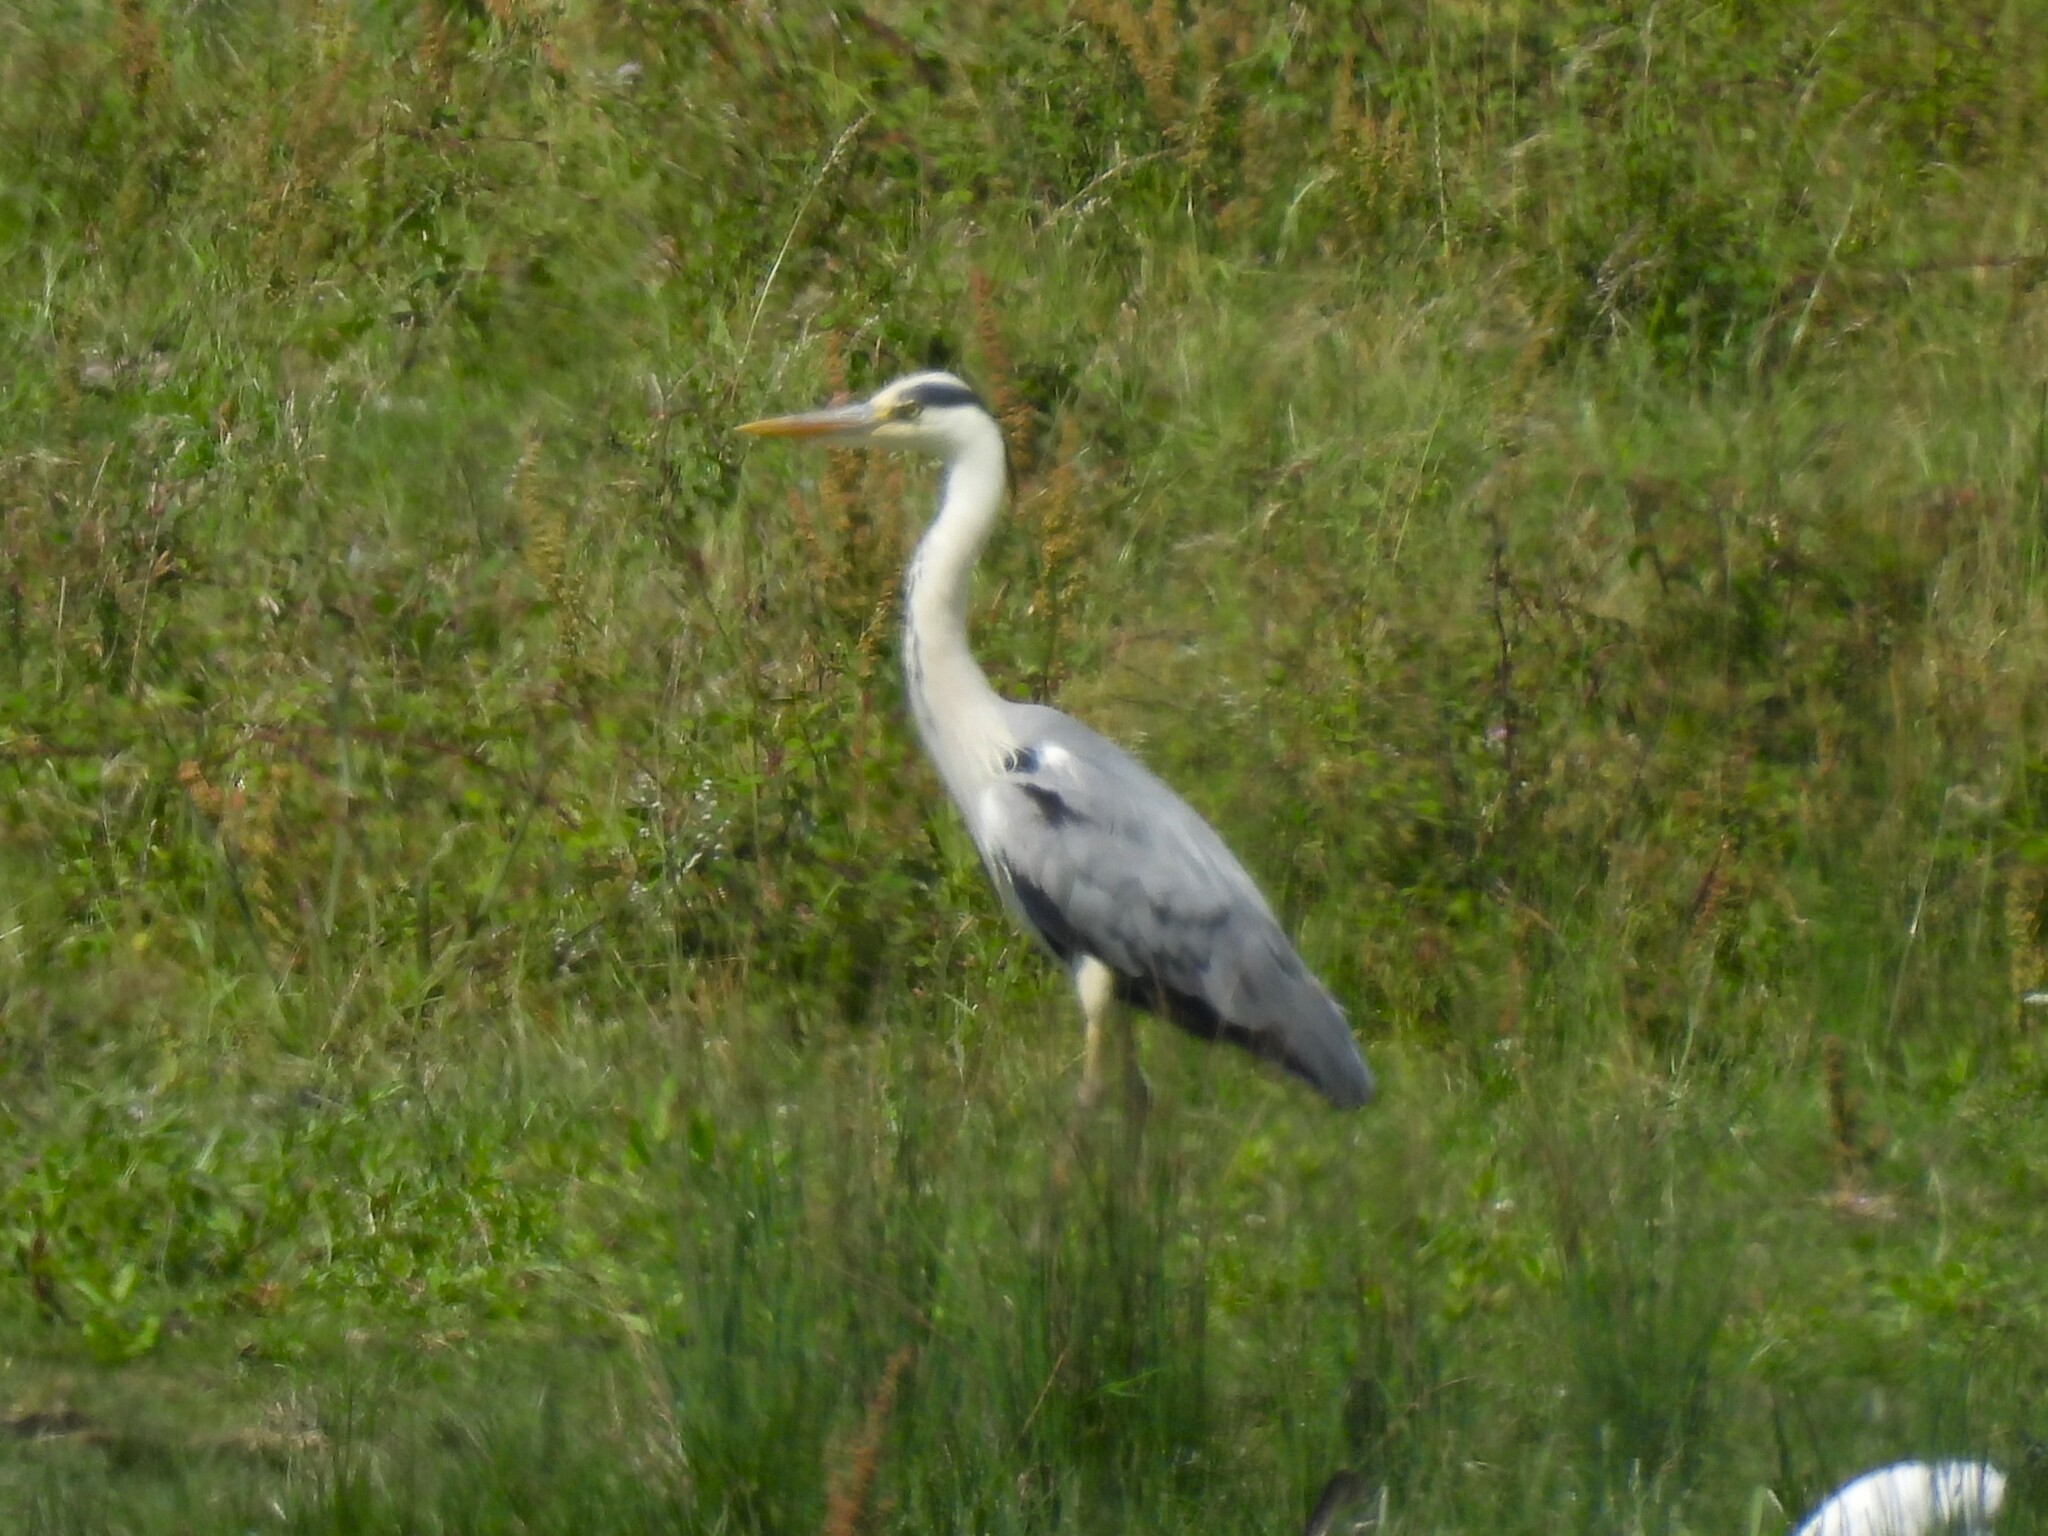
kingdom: Animalia
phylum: Chordata
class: Aves
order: Pelecaniformes
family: Ardeidae
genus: Ardea
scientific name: Ardea cinerea
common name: Grey heron
